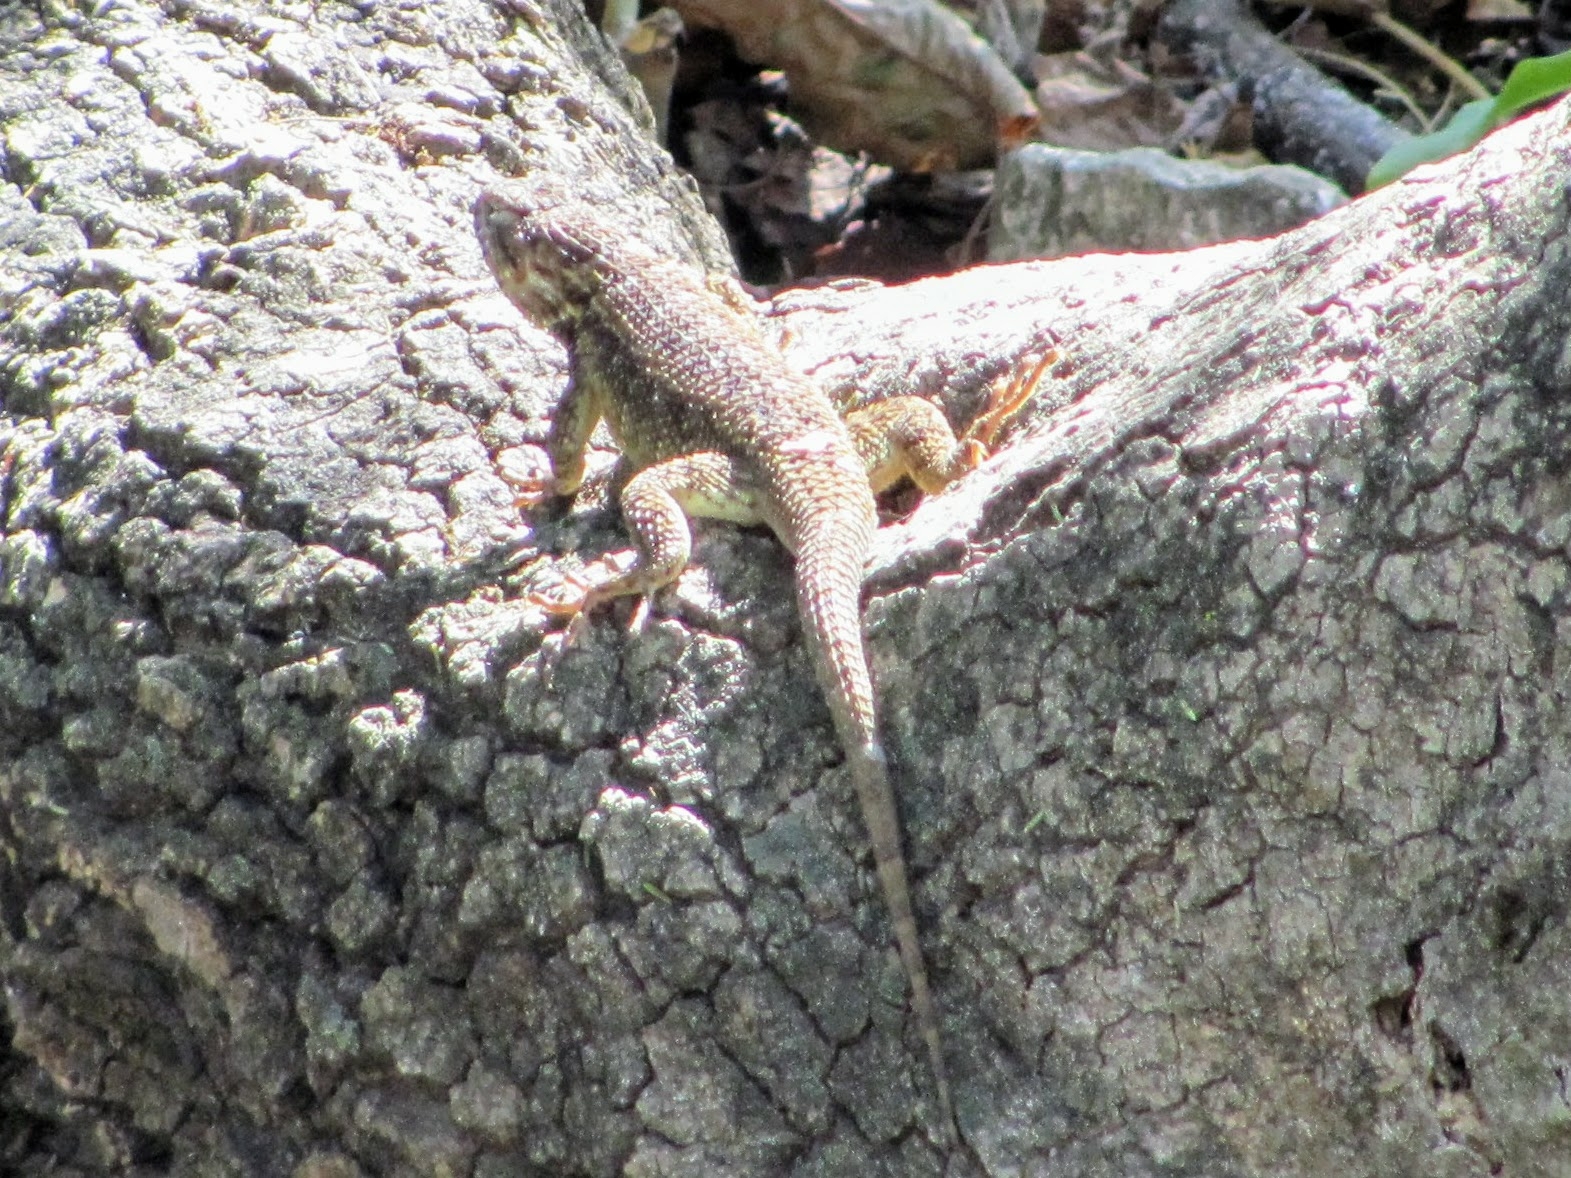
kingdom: Animalia
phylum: Chordata
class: Squamata
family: Phrynosomatidae
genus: Sceloporus
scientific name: Sceloporus horridus
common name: Few-pored rough lizard
